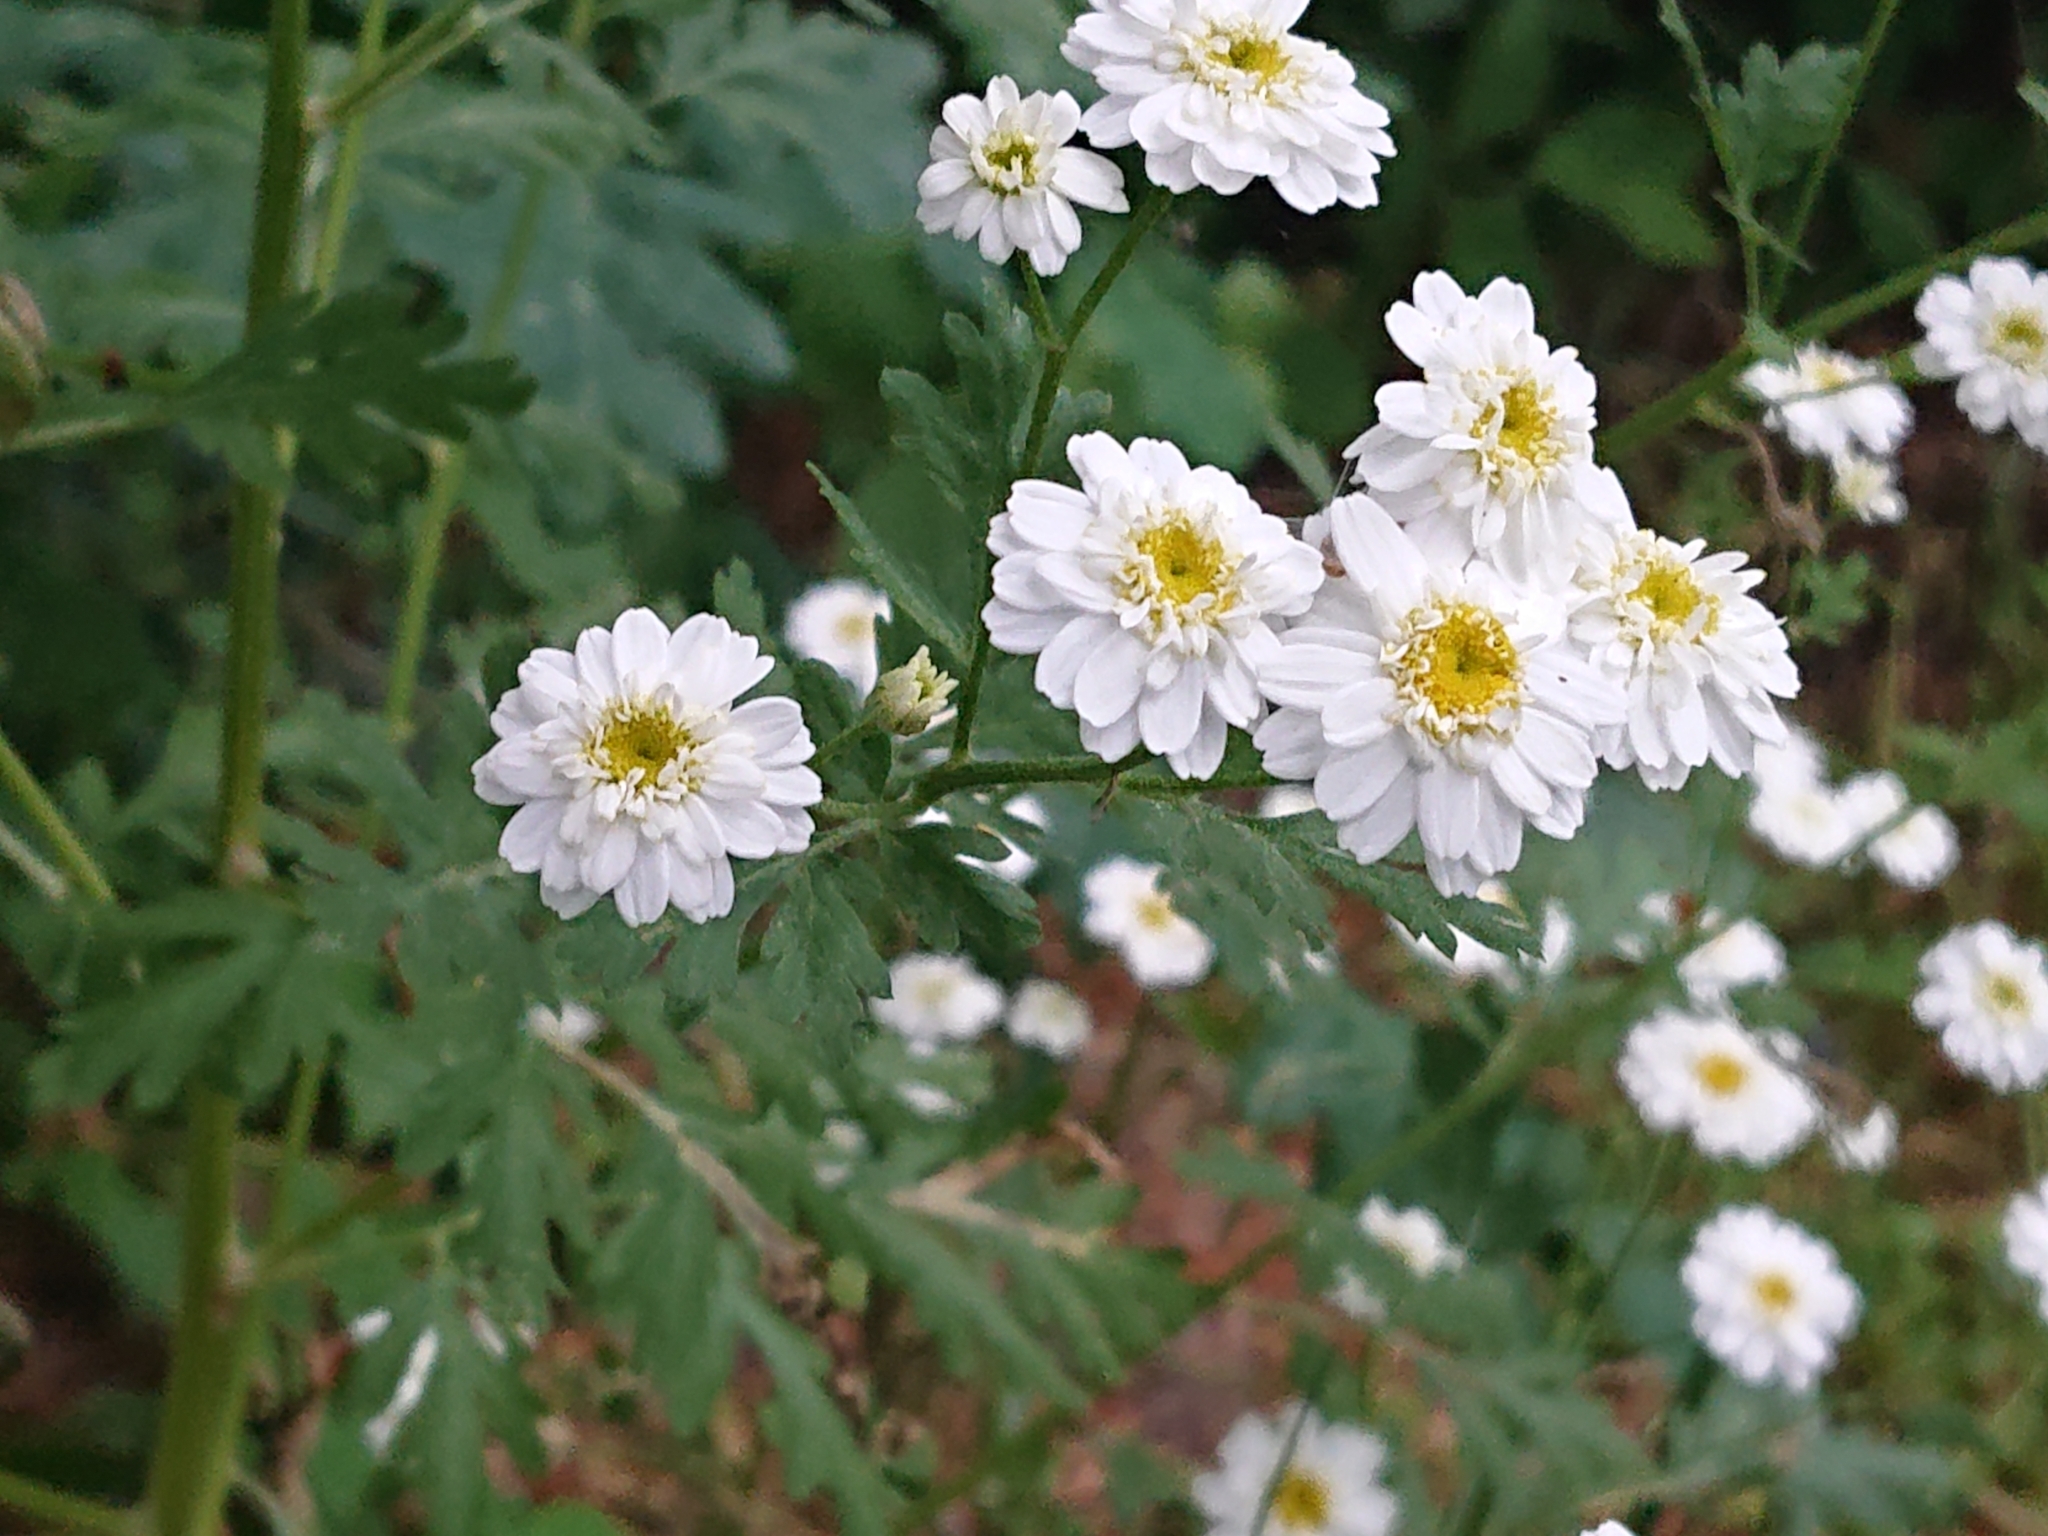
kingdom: Plantae
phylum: Tracheophyta
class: Magnoliopsida
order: Asterales
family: Asteraceae
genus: Tanacetum
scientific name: Tanacetum parthenium
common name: Feverfew
